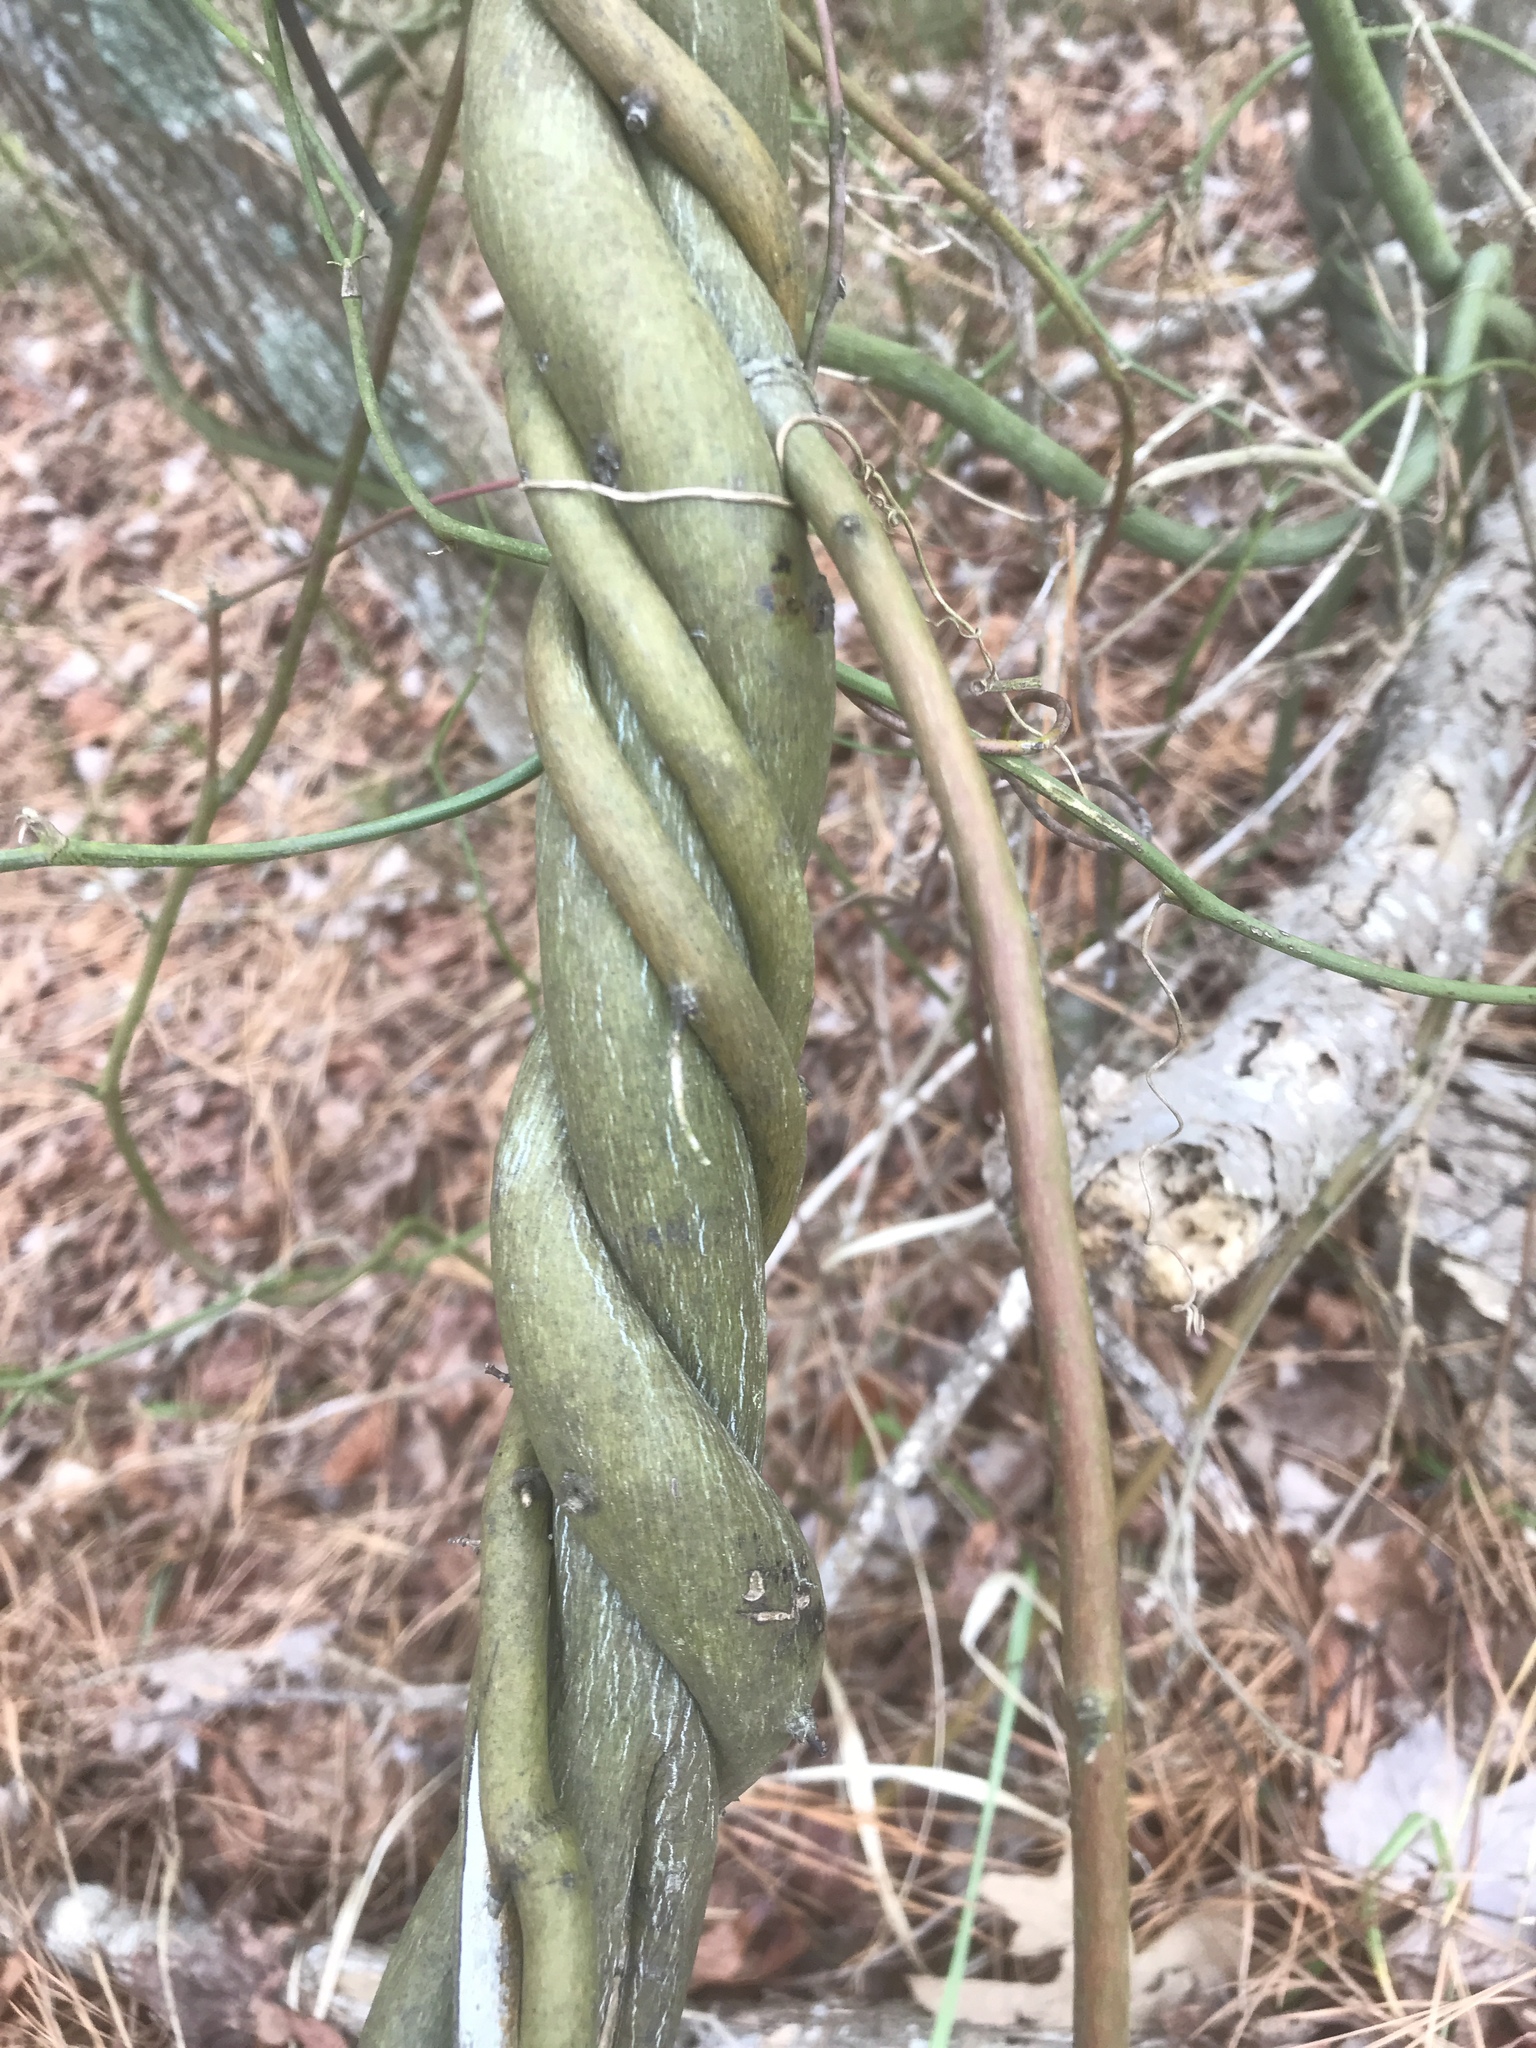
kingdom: Plantae
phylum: Tracheophyta
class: Magnoliopsida
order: Rosales
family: Rhamnaceae
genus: Berchemia
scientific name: Berchemia scandens
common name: Supplejack
